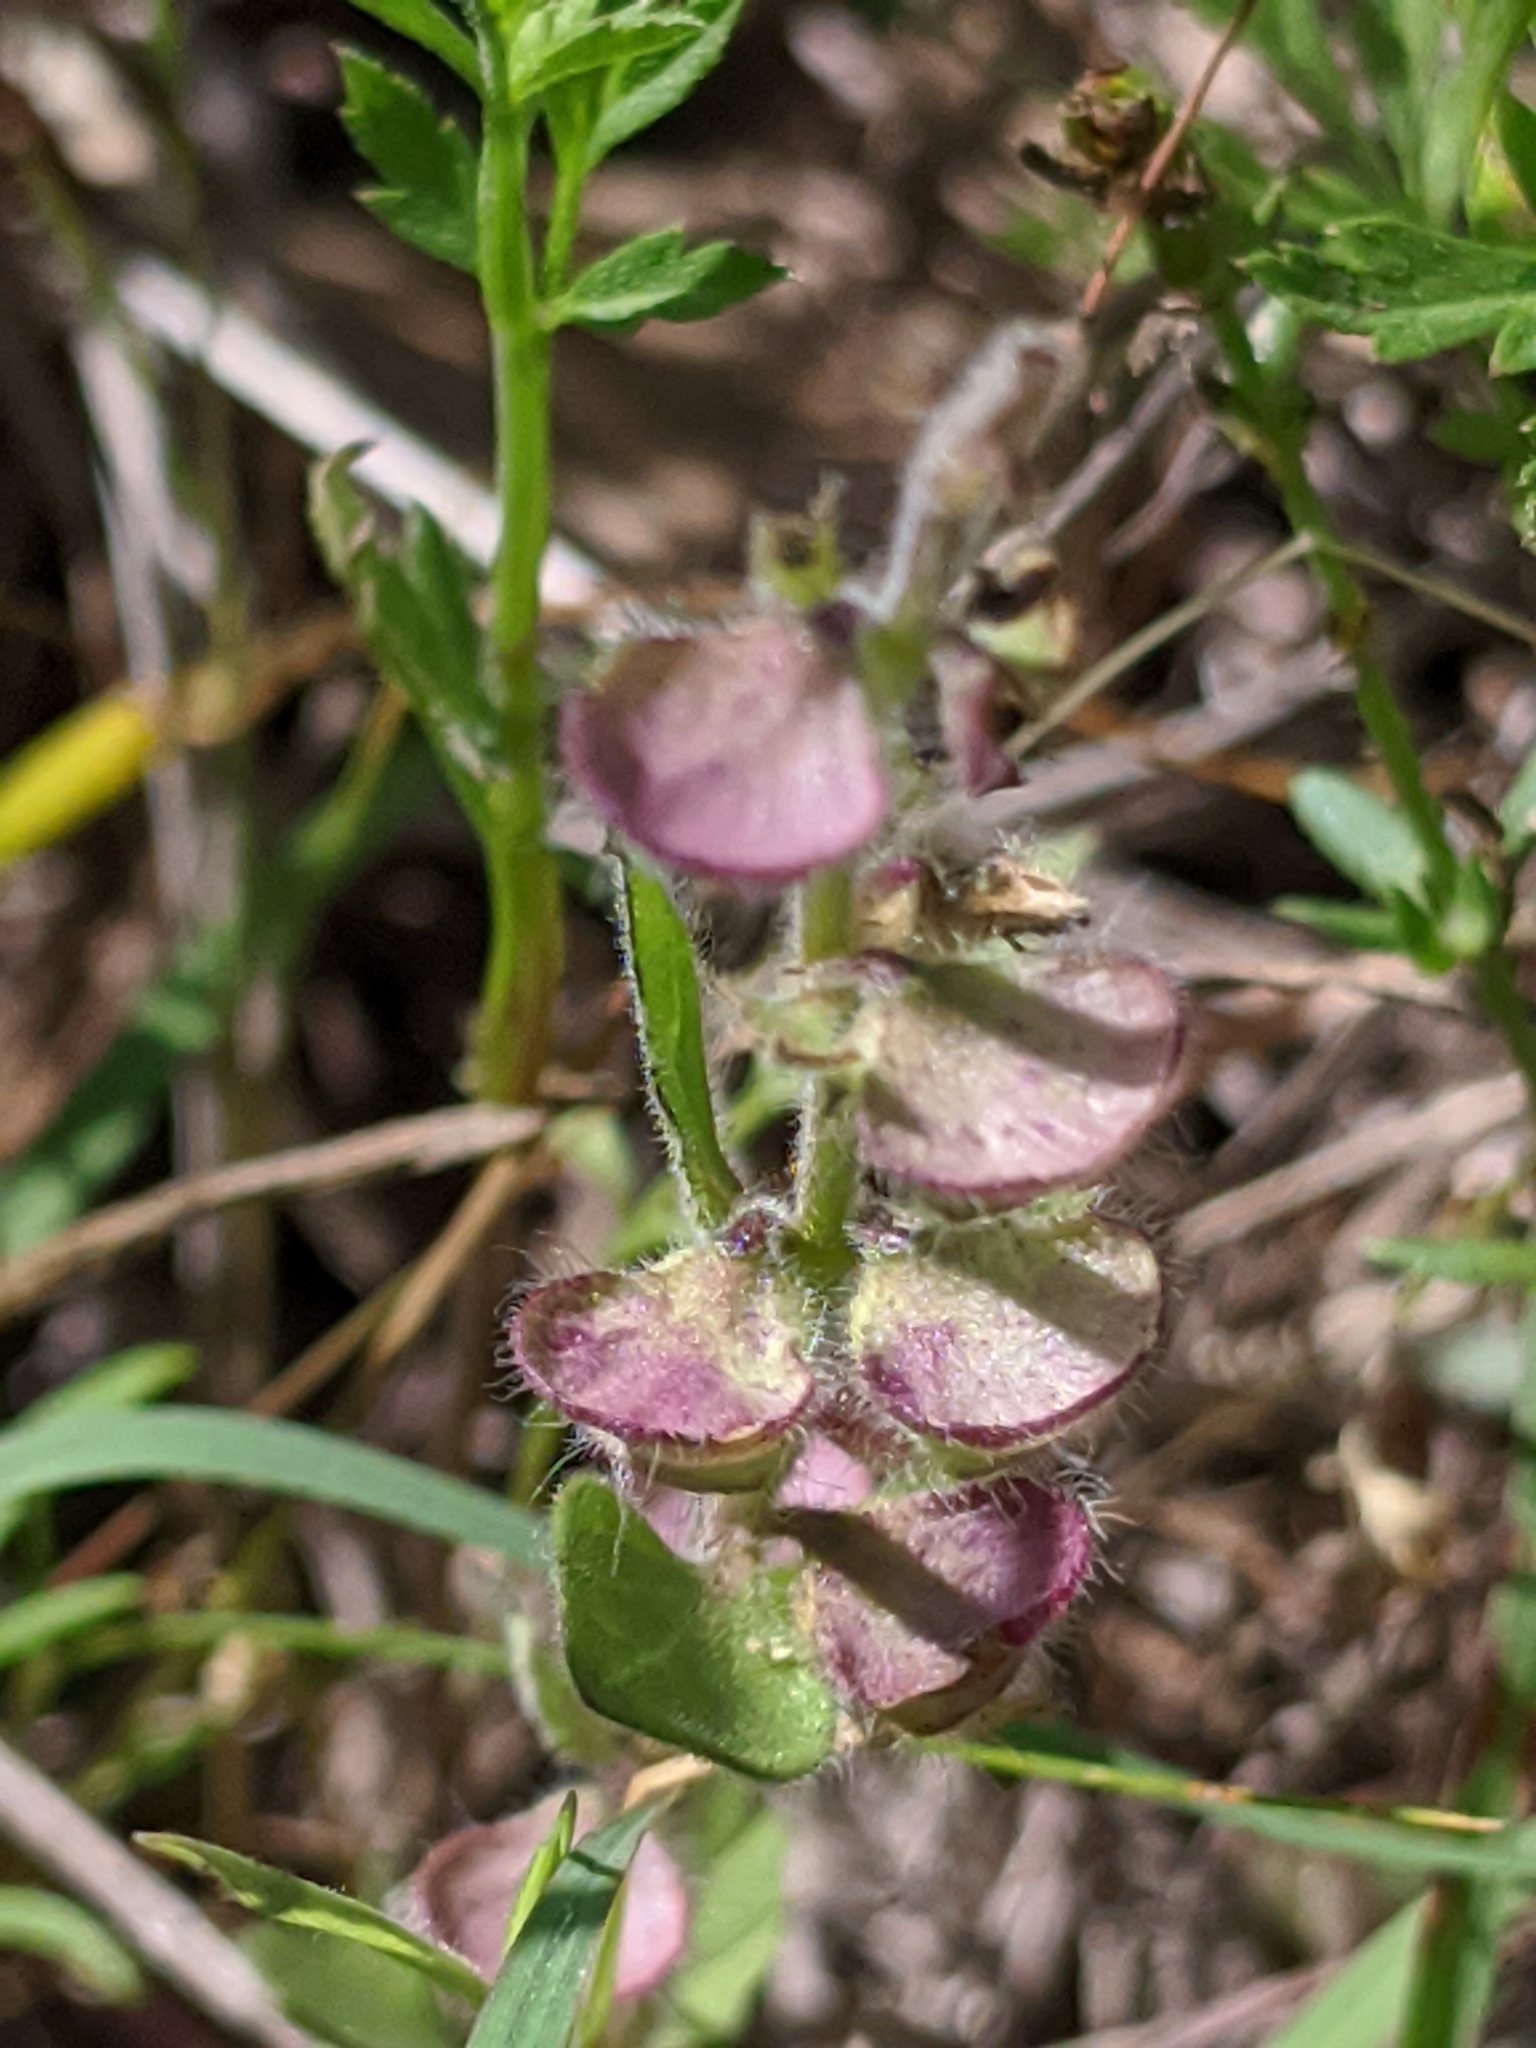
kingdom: Plantae
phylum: Tracheophyta
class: Magnoliopsida
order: Lamiales
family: Lamiaceae
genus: Scutellaria
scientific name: Scutellaria drummondii
